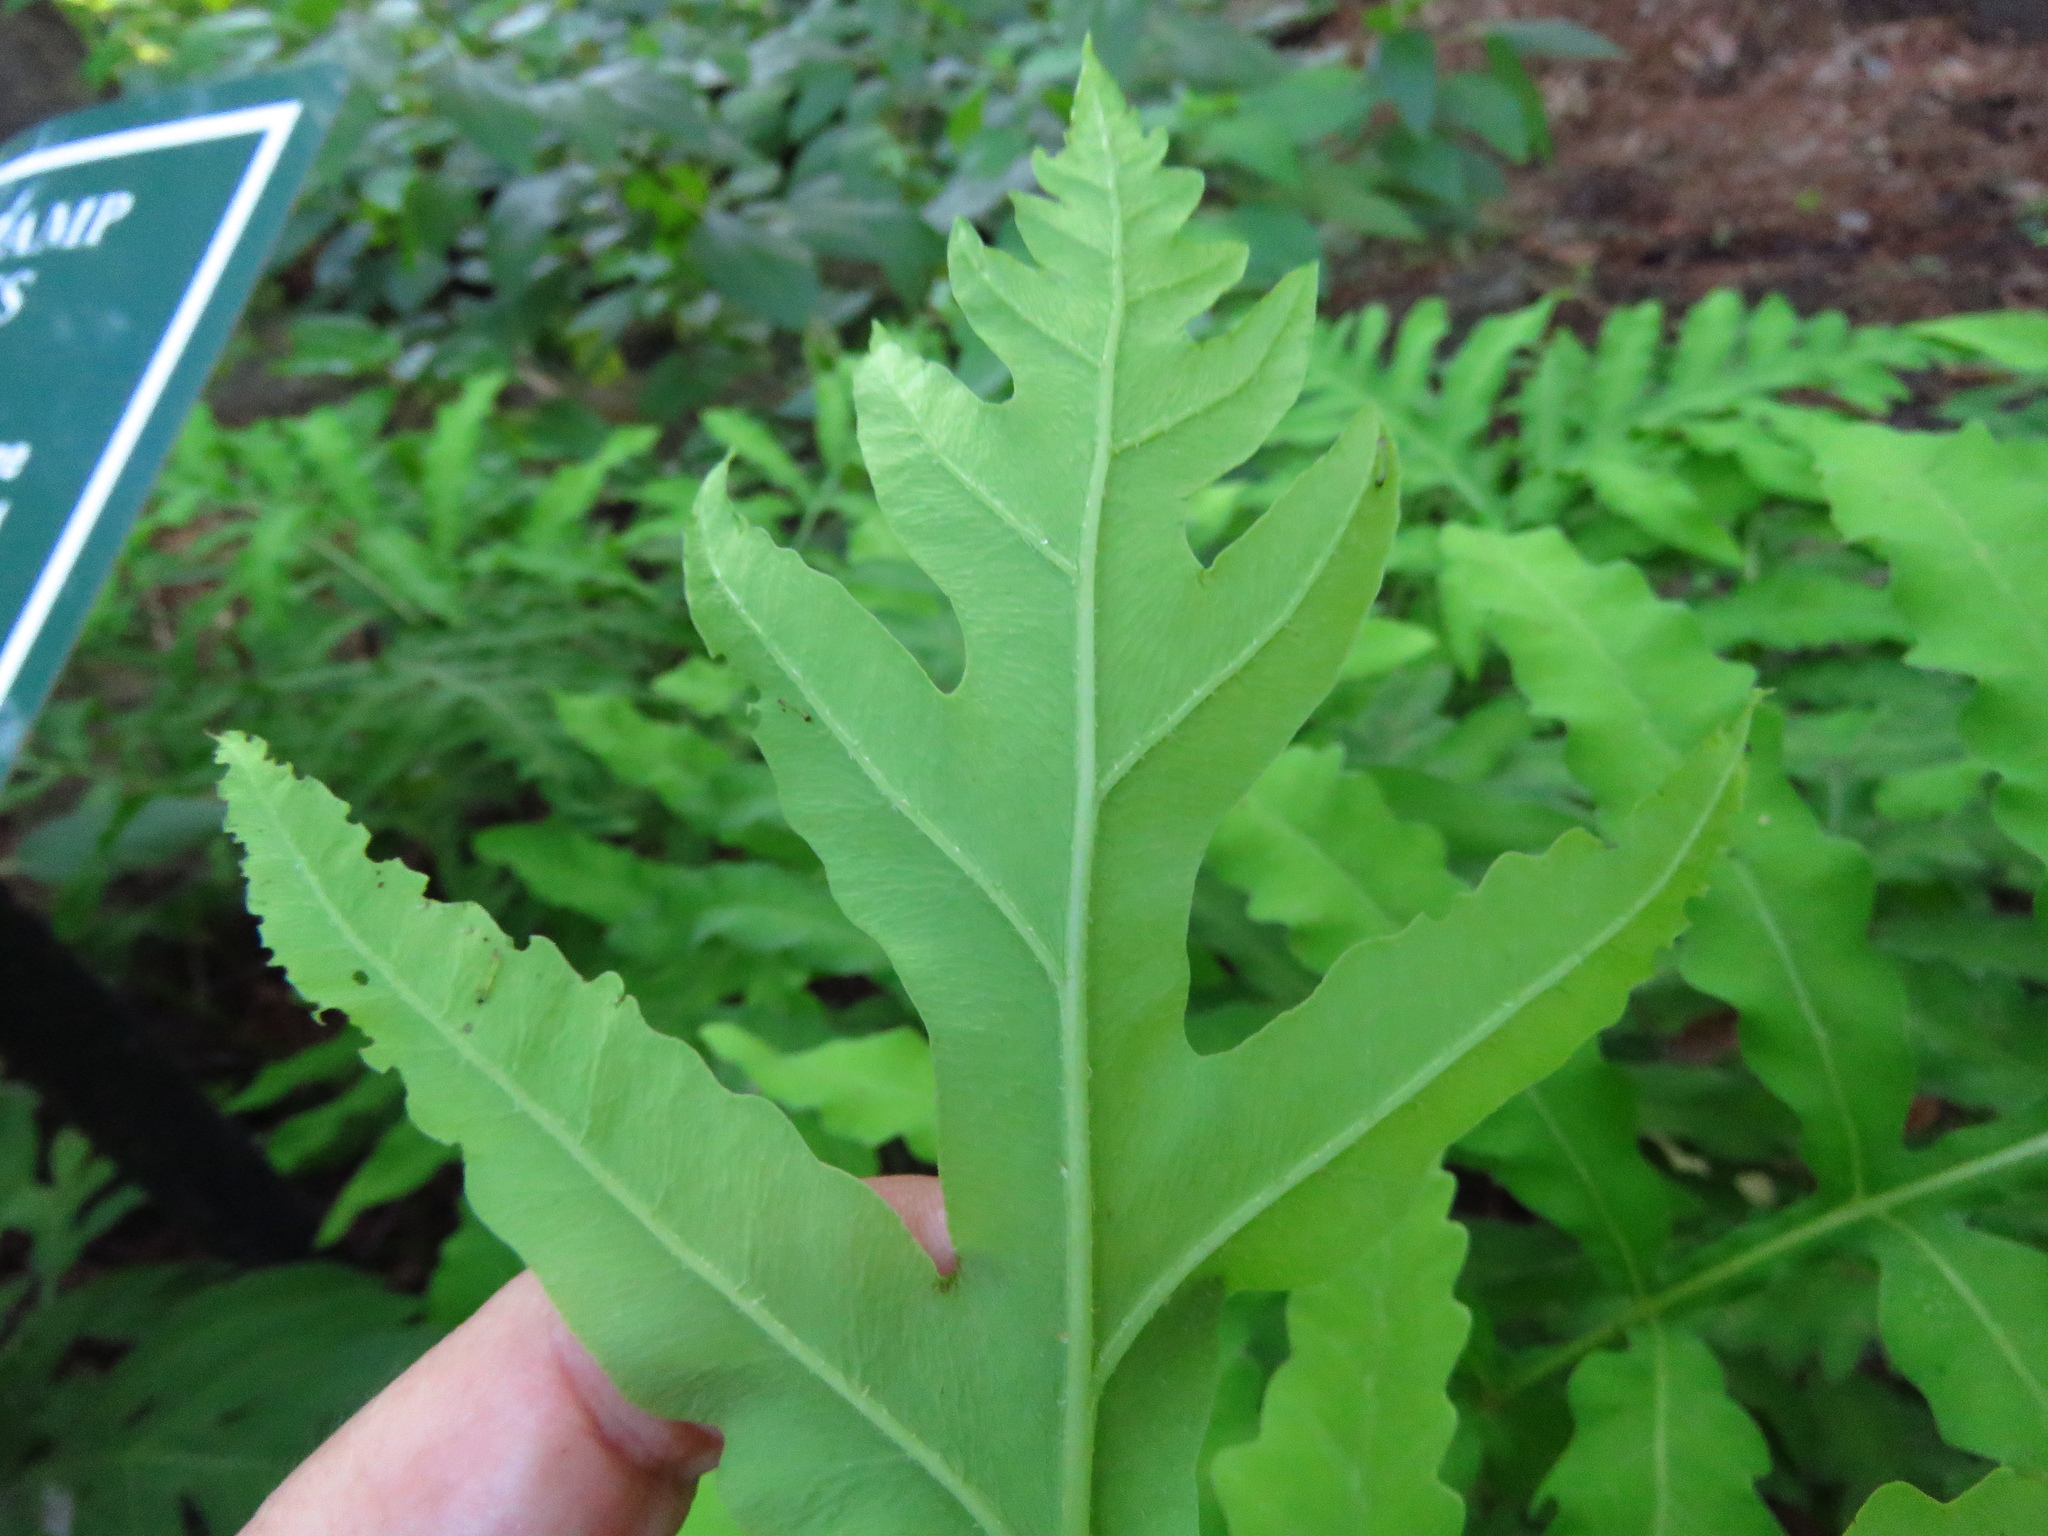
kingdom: Plantae
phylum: Tracheophyta
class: Polypodiopsida
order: Polypodiales
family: Onocleaceae
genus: Onoclea
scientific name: Onoclea sensibilis
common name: Sensitive fern
